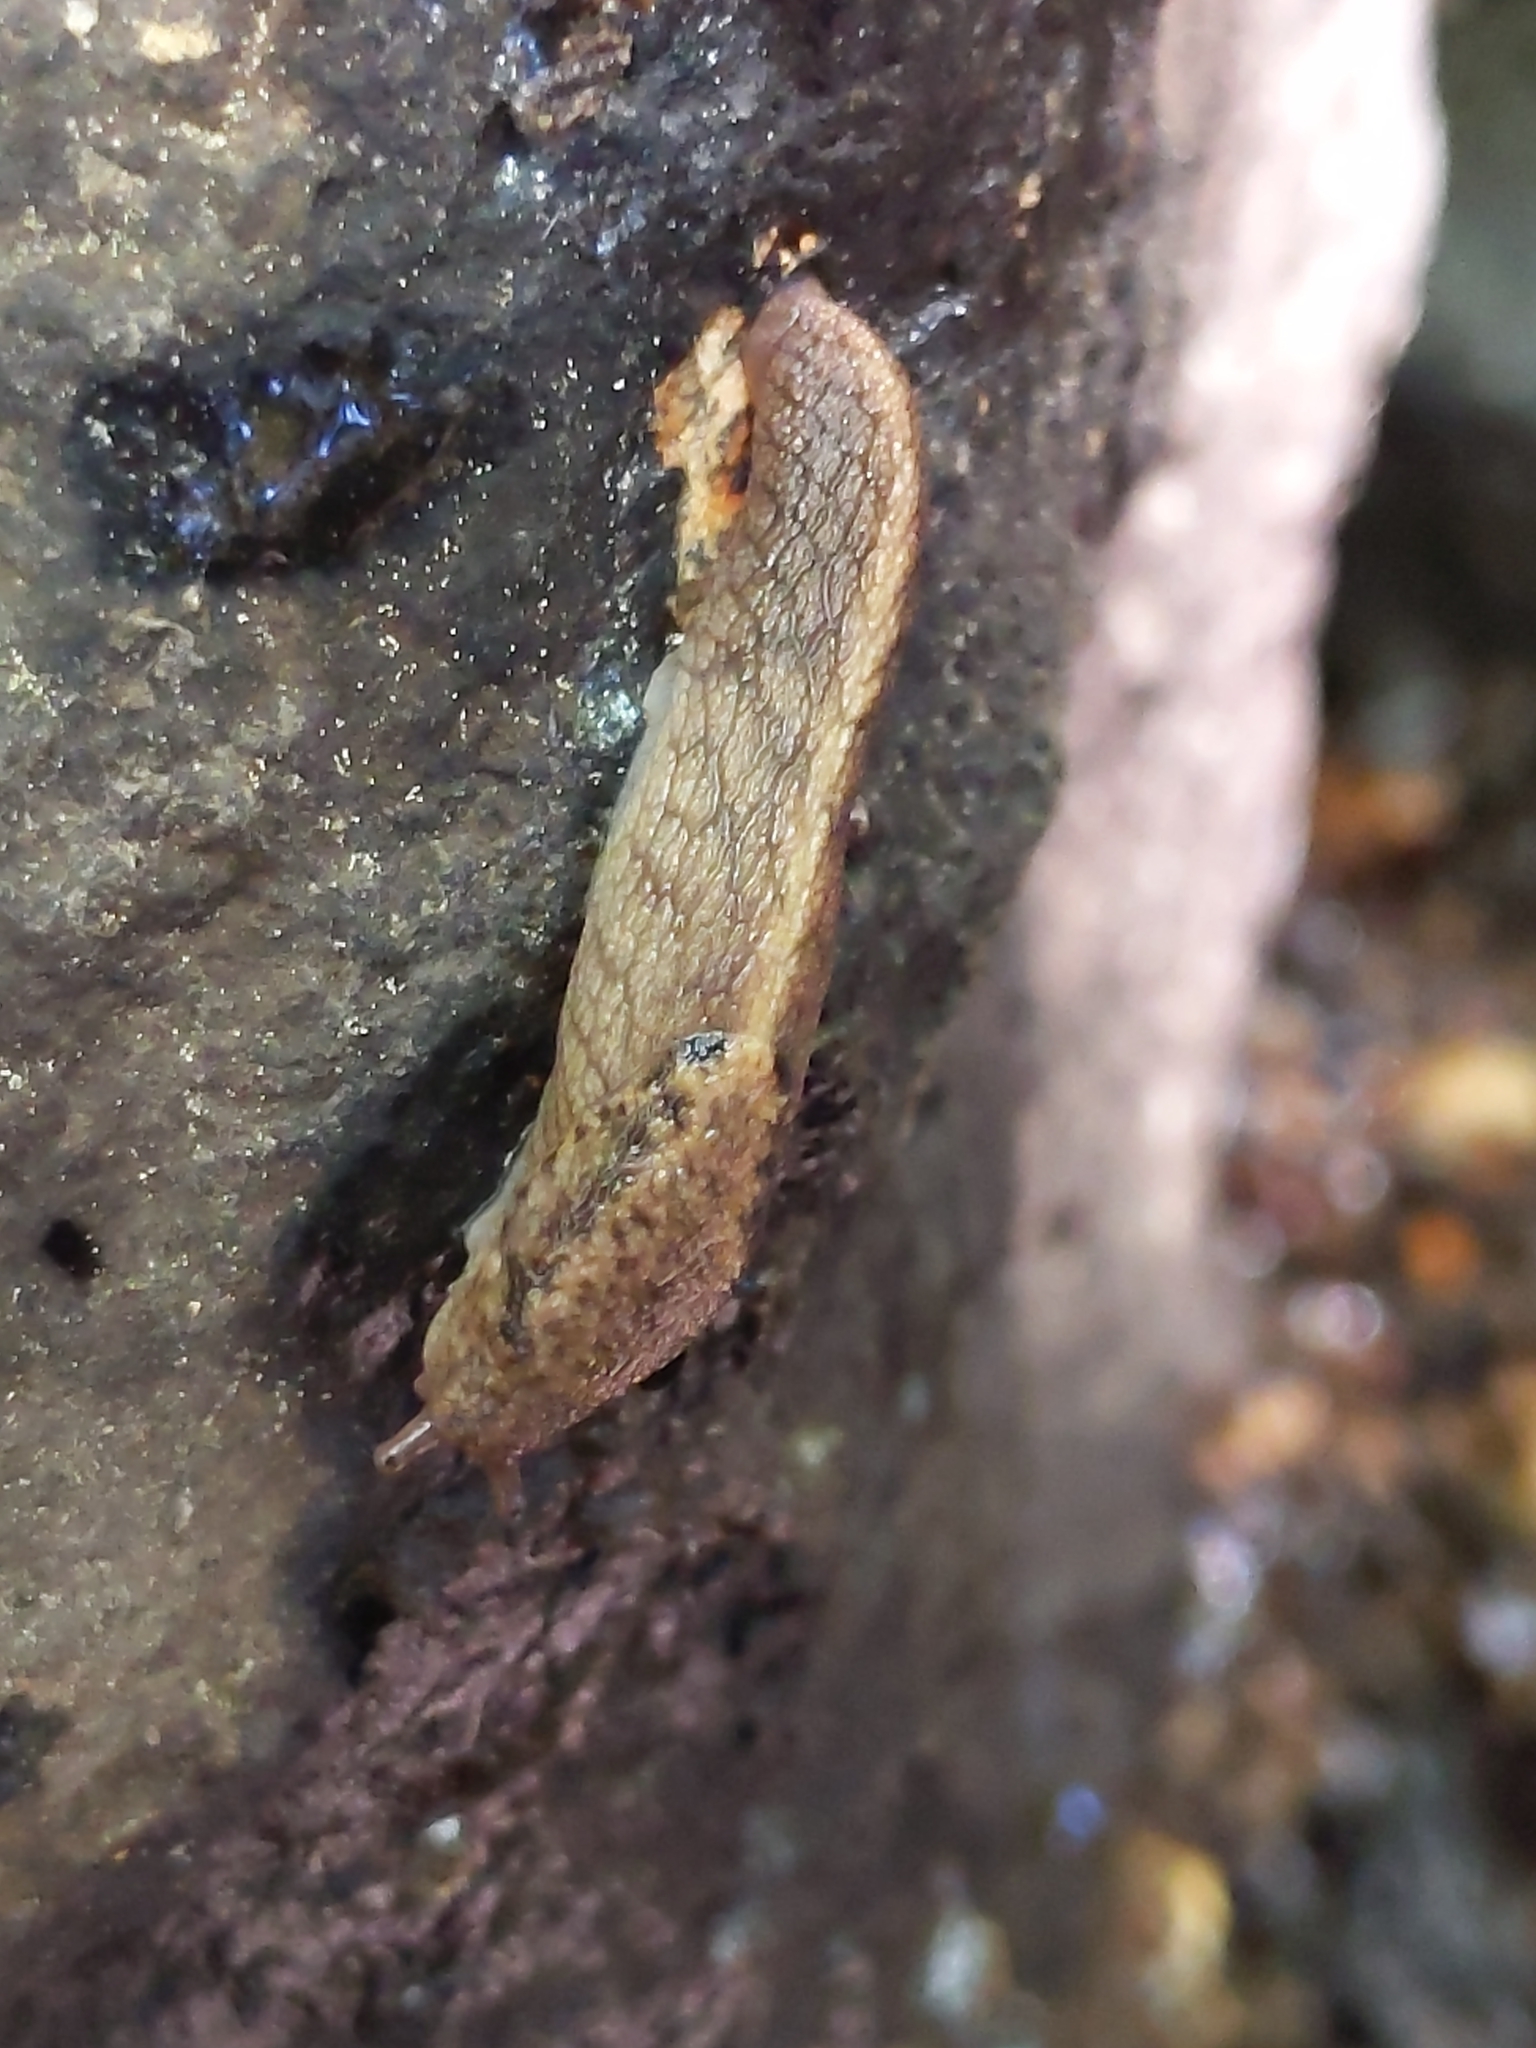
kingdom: Animalia
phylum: Mollusca
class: Gastropoda
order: Stylommatophora
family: Ariolimacidae
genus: Prophysaon
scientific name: Prophysaon andersonii
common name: Reticulate taildropper
